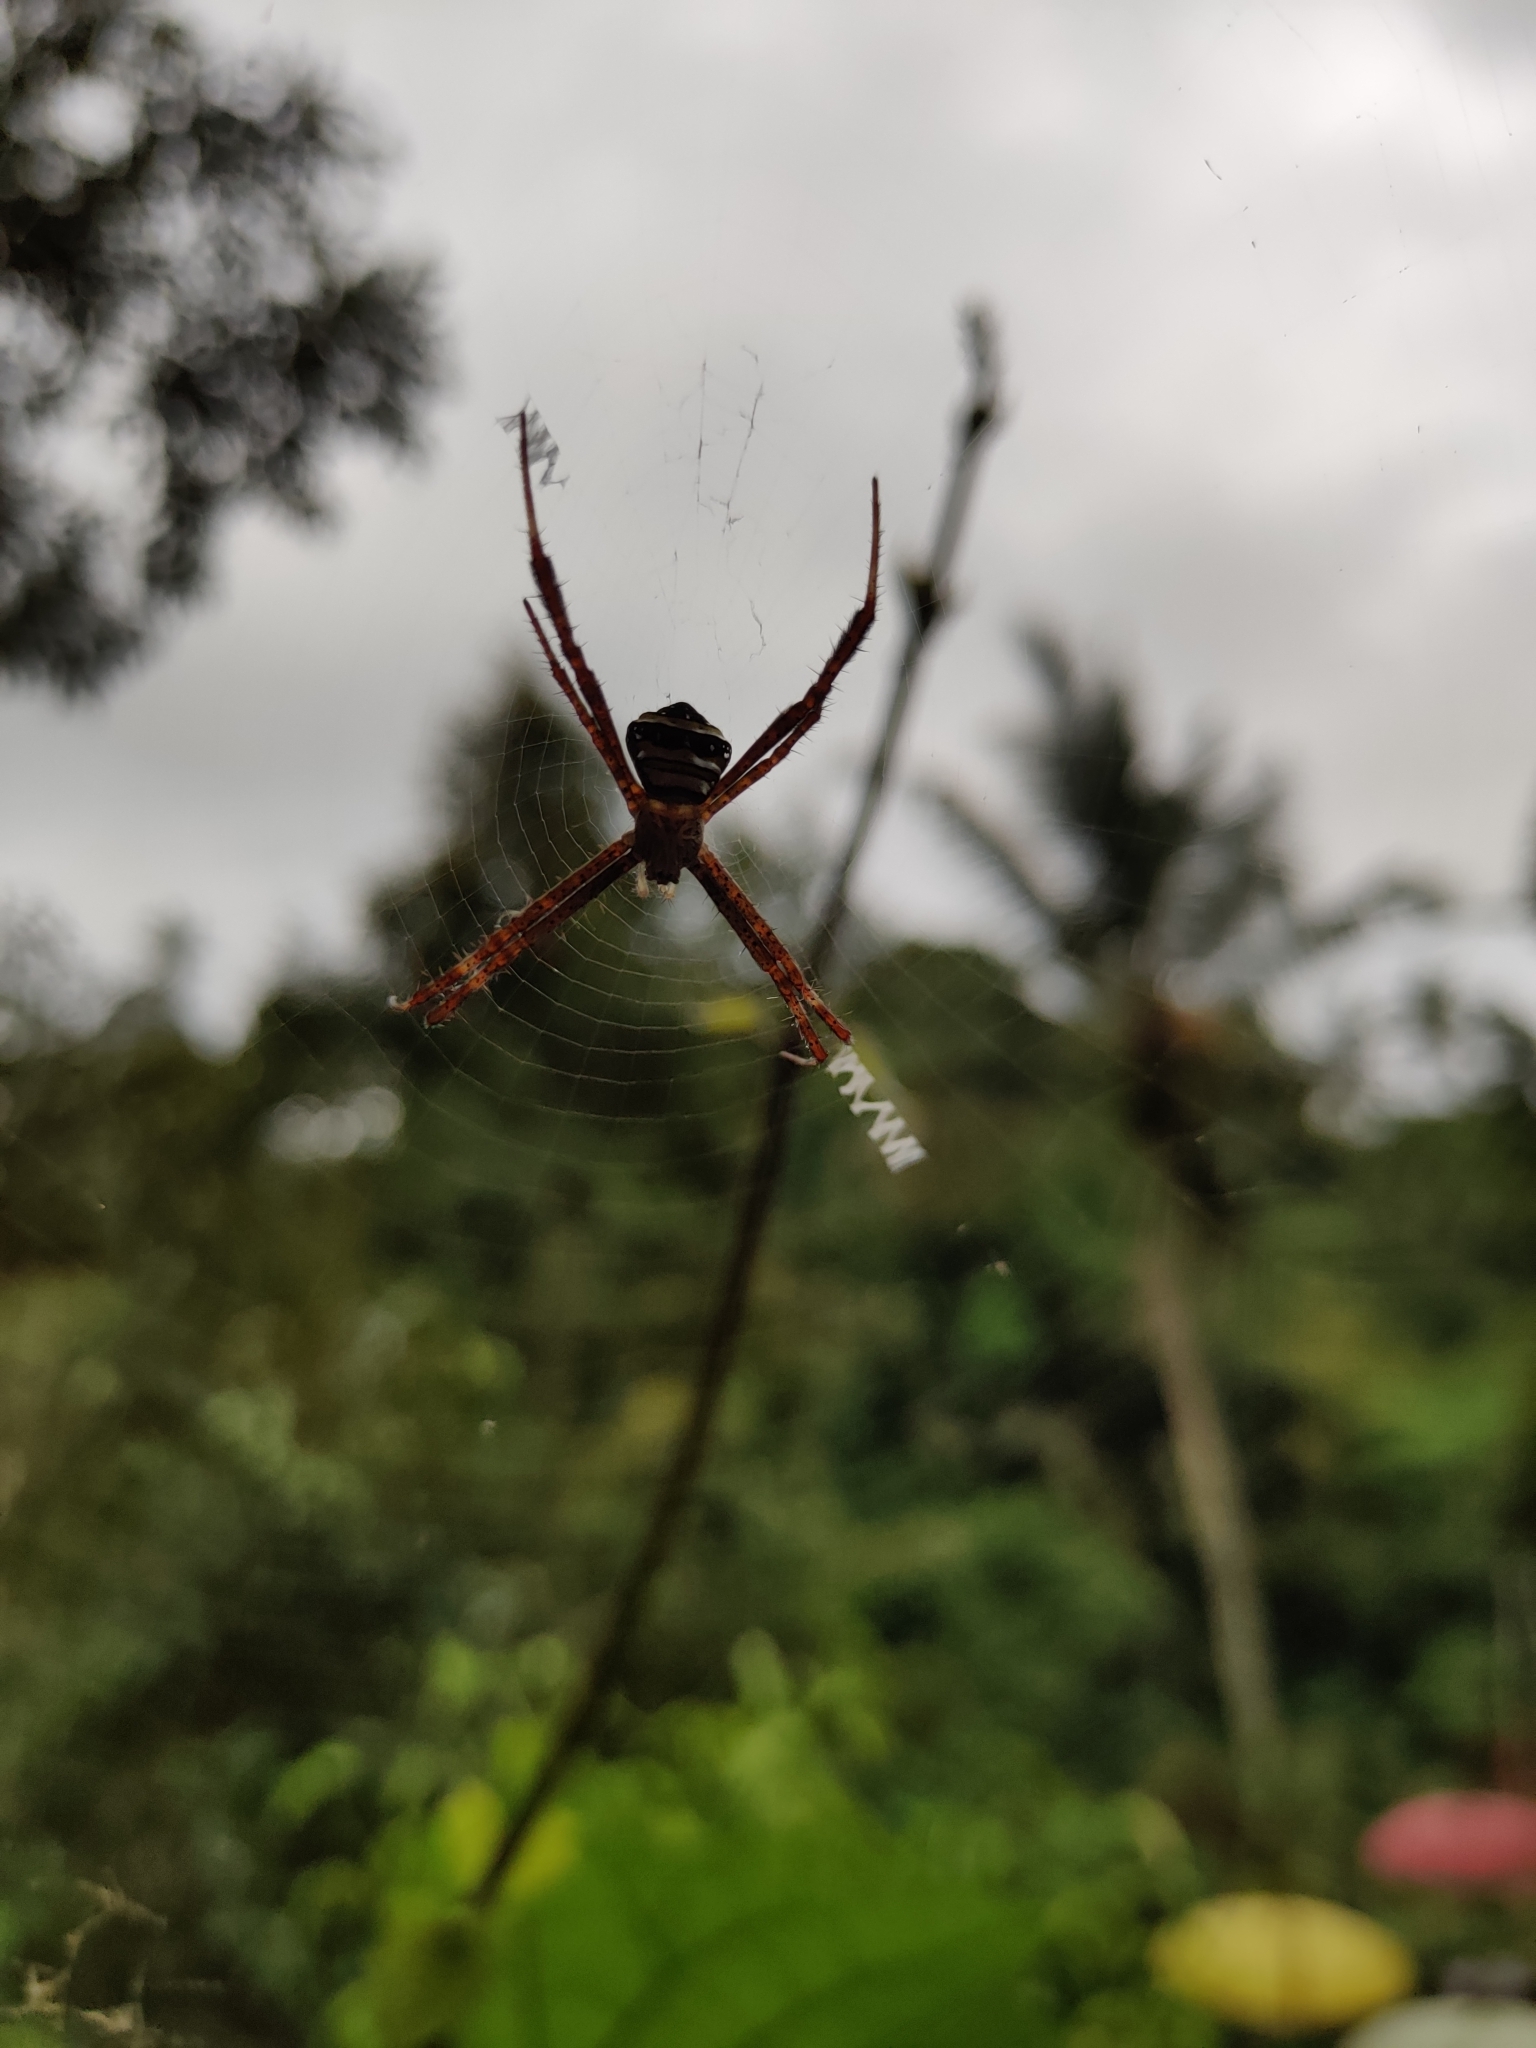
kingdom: Animalia
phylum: Arthropoda
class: Arachnida
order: Araneae
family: Araneidae
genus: Argiope
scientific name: Argiope versicolor
